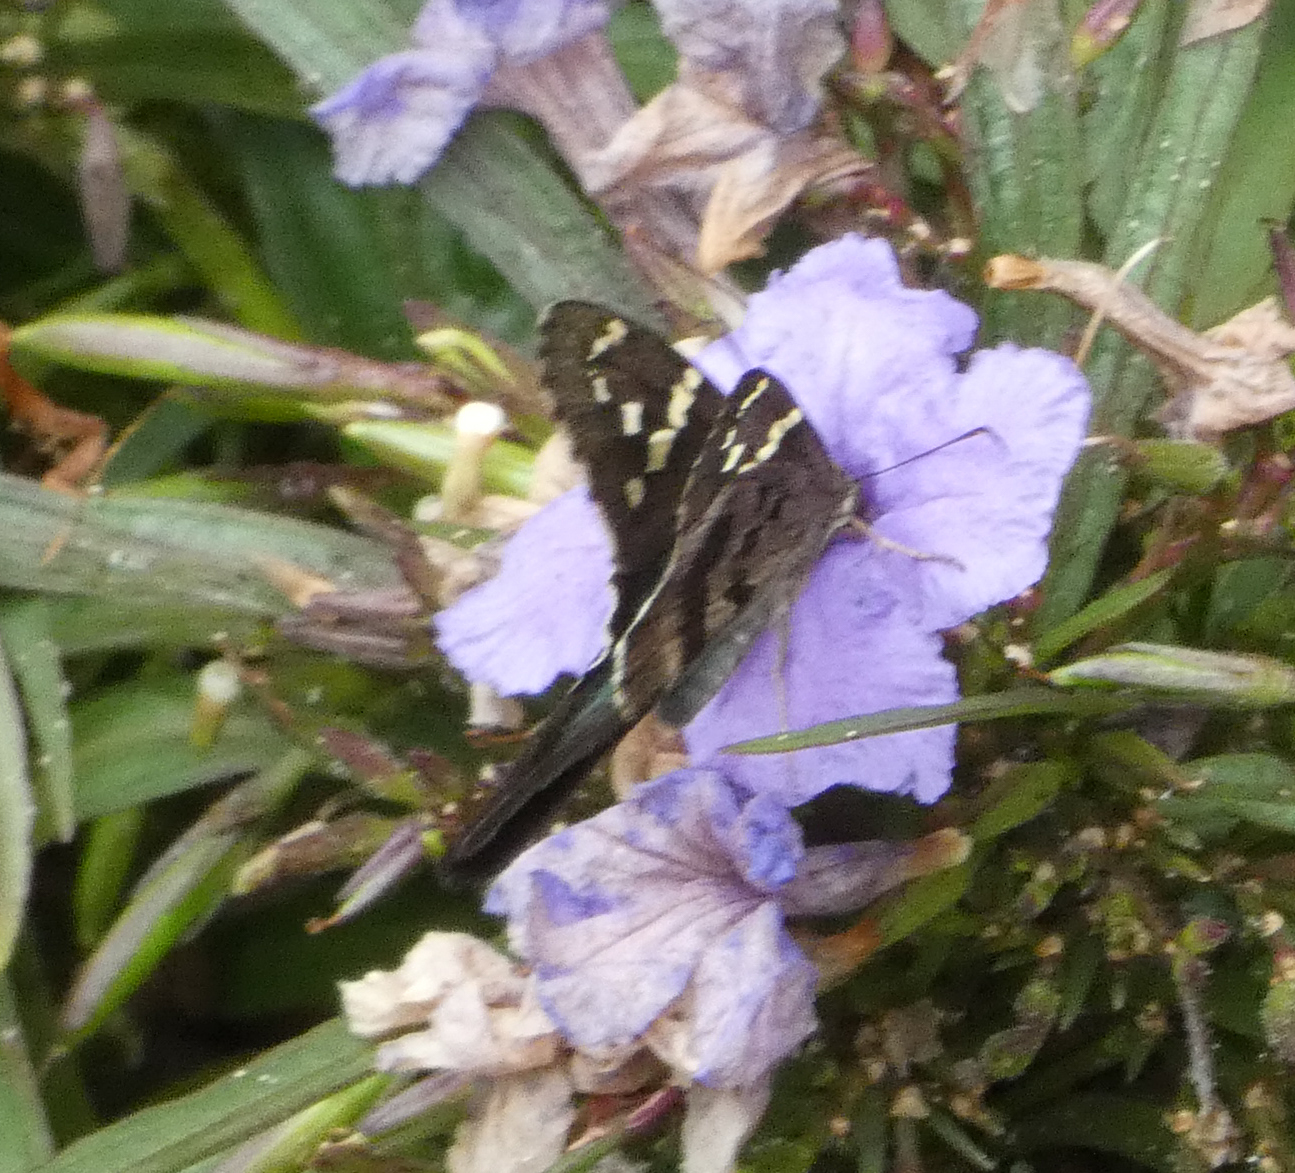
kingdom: Animalia
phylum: Arthropoda
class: Insecta
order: Lepidoptera
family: Hesperiidae
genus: Urbanus
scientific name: Urbanus proteus
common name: Long-tailed skipper
